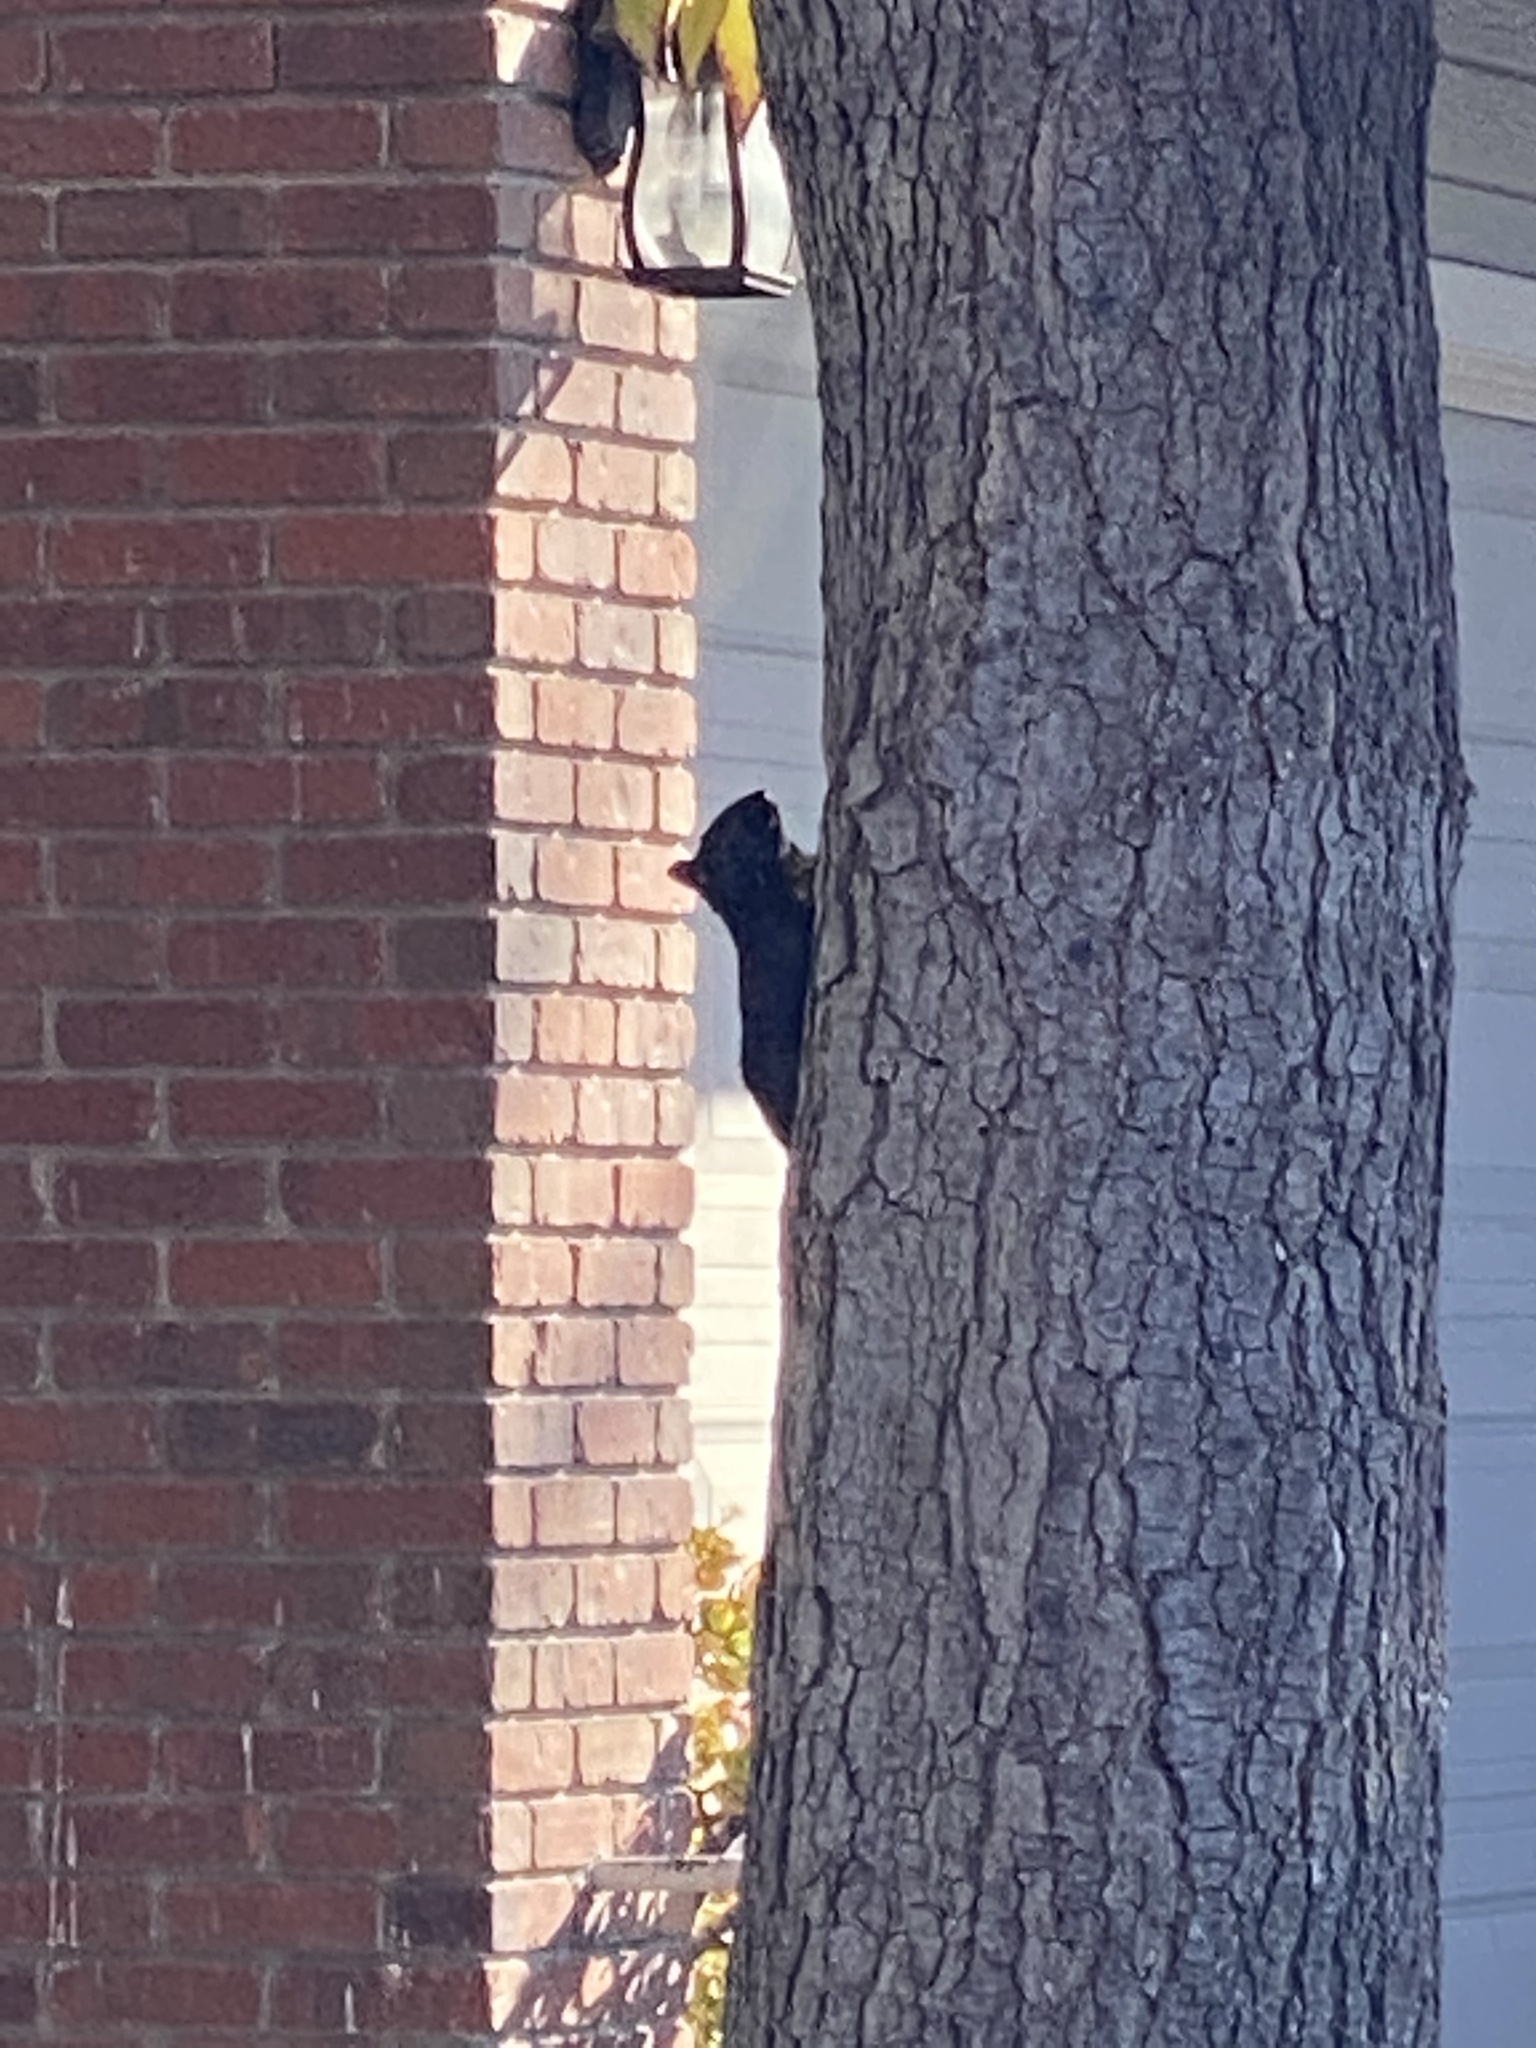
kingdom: Animalia
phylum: Chordata
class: Mammalia
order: Rodentia
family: Sciuridae
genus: Sciurus
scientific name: Sciurus carolinensis
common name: Eastern gray squirrel
